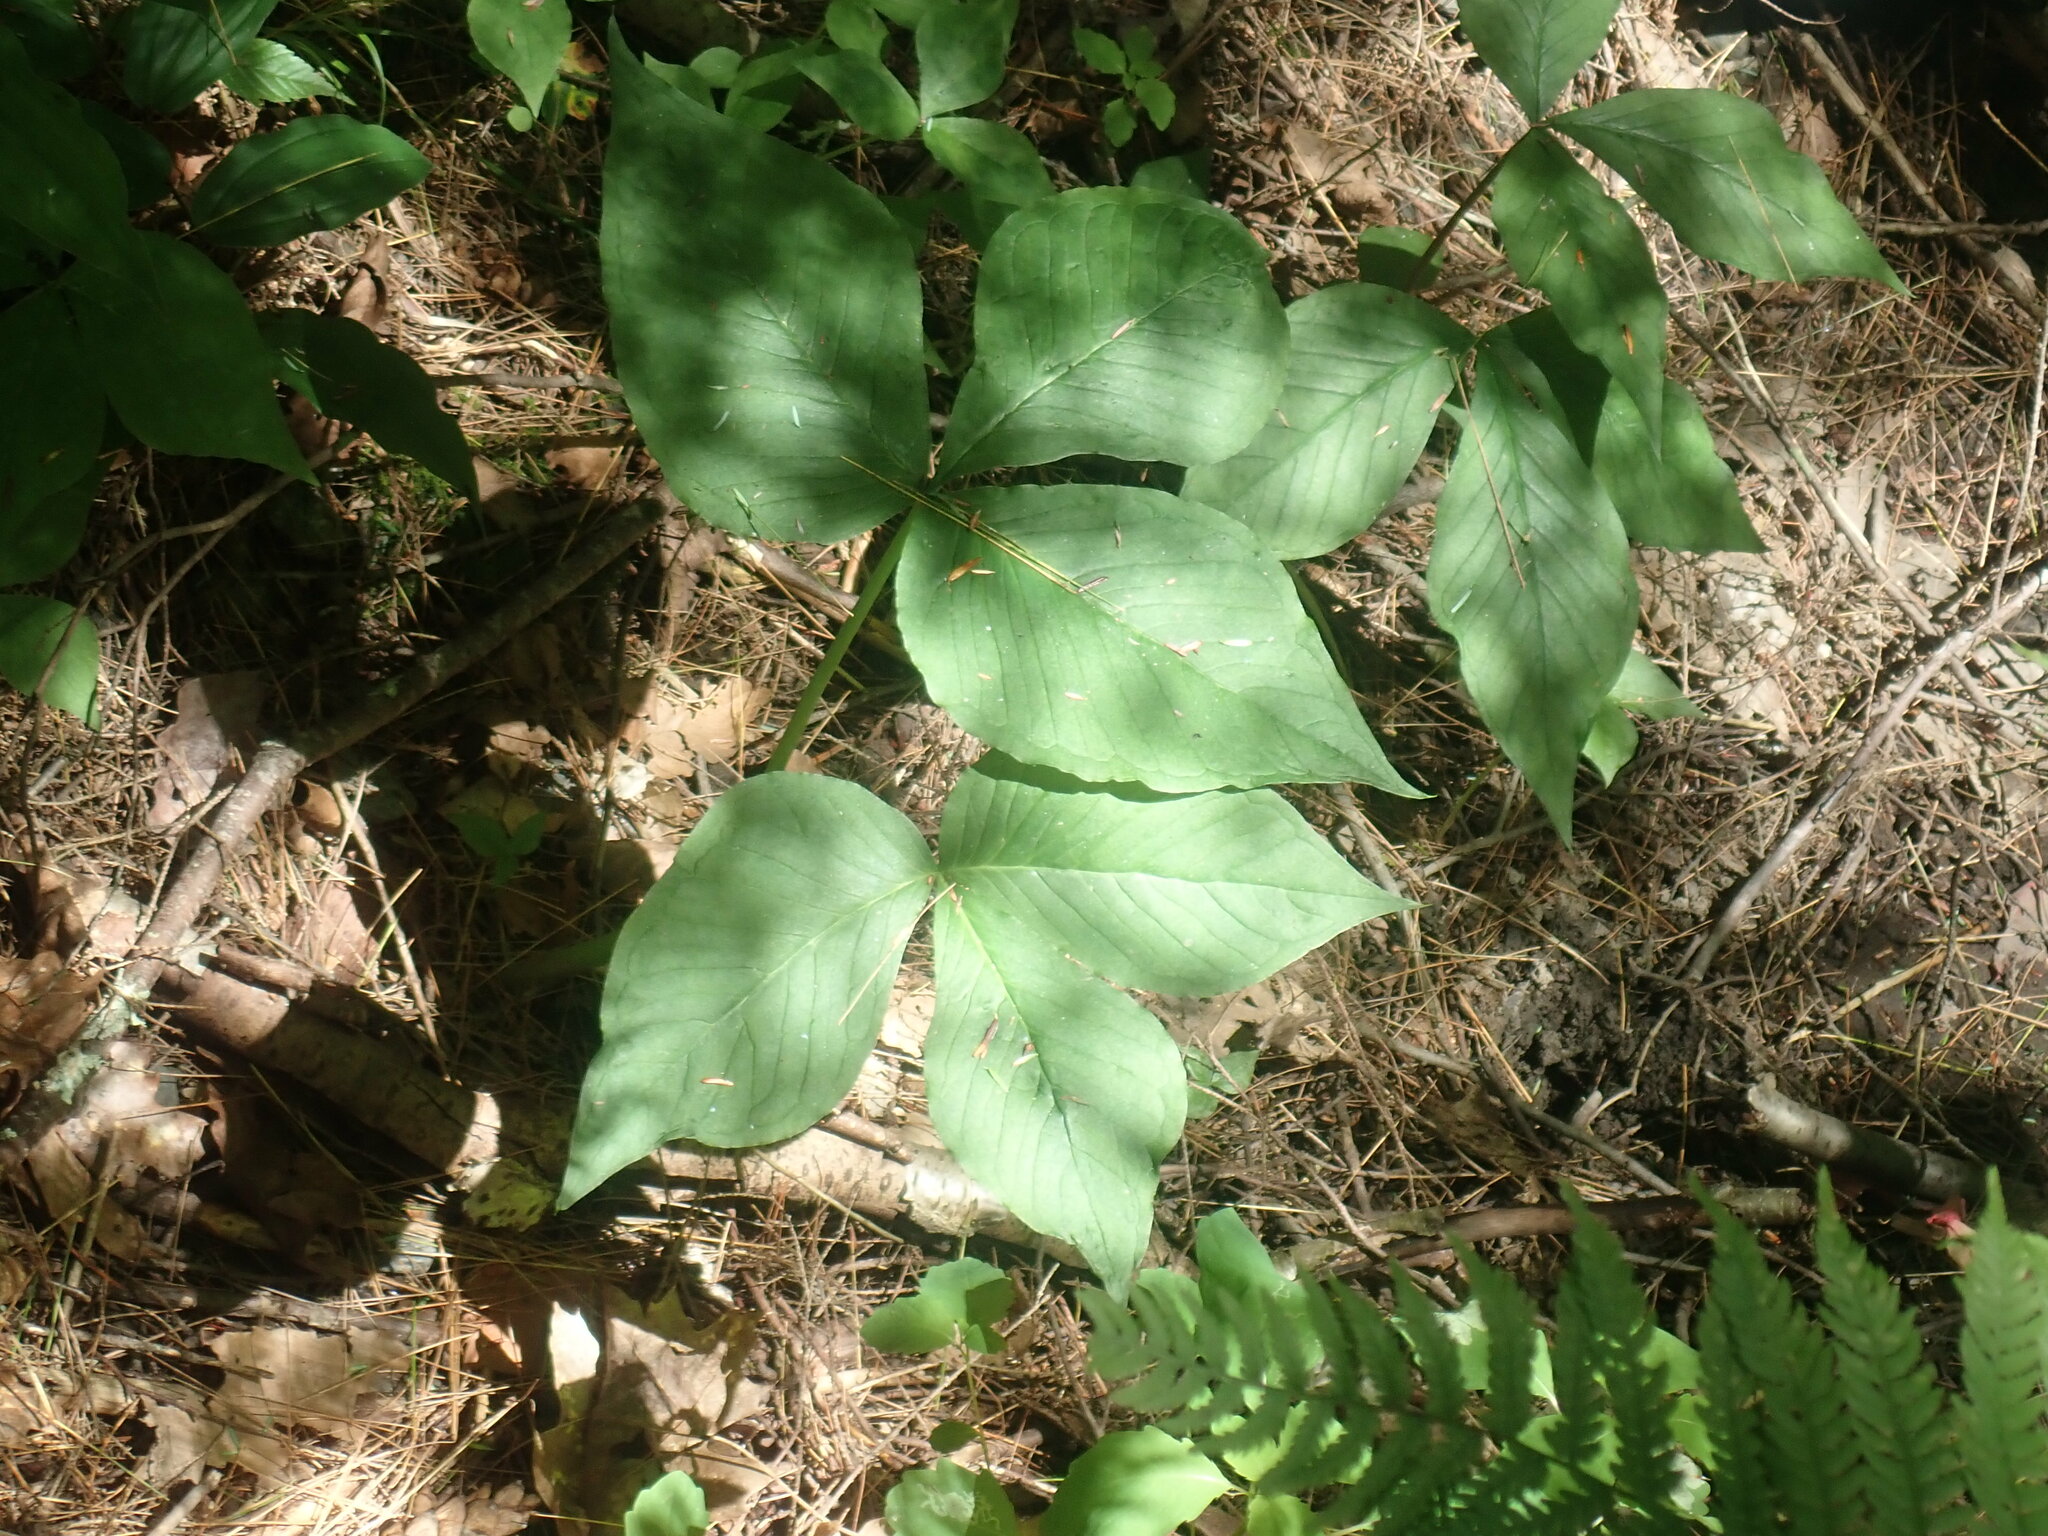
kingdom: Plantae
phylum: Tracheophyta
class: Liliopsida
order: Alismatales
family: Araceae
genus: Arisaema
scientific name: Arisaema triphyllum
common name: Jack-in-the-pulpit
